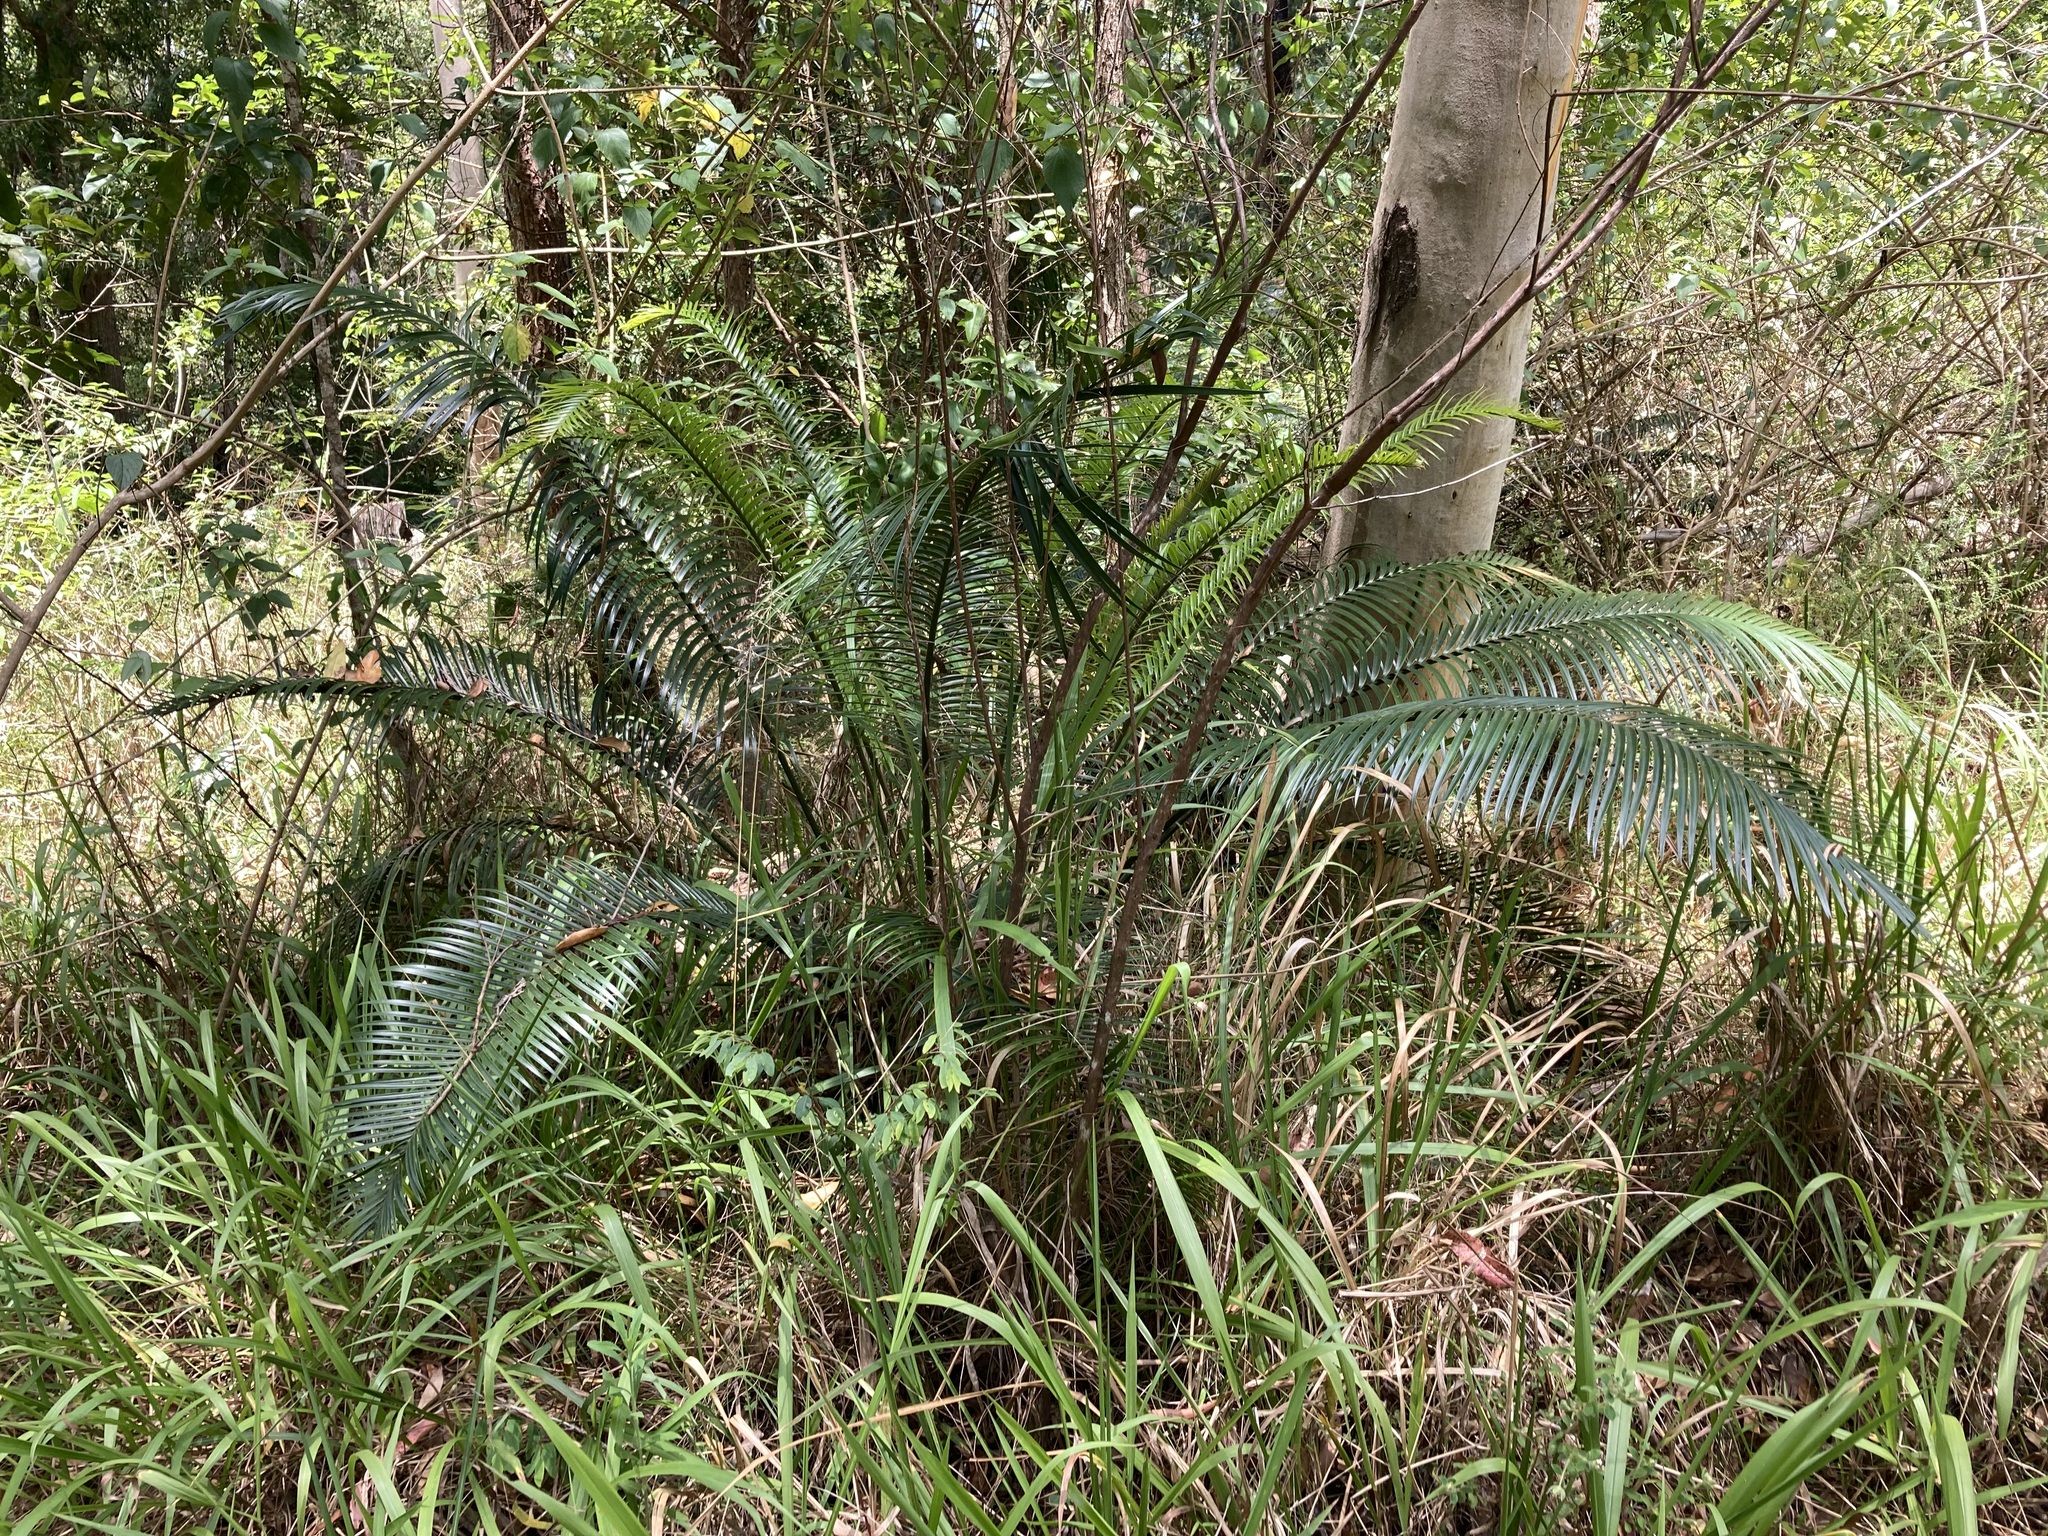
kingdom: Plantae
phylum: Tracheophyta
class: Cycadopsida
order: Cycadales
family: Zamiaceae
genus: Lepidozamia
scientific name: Lepidozamia peroffskyana
